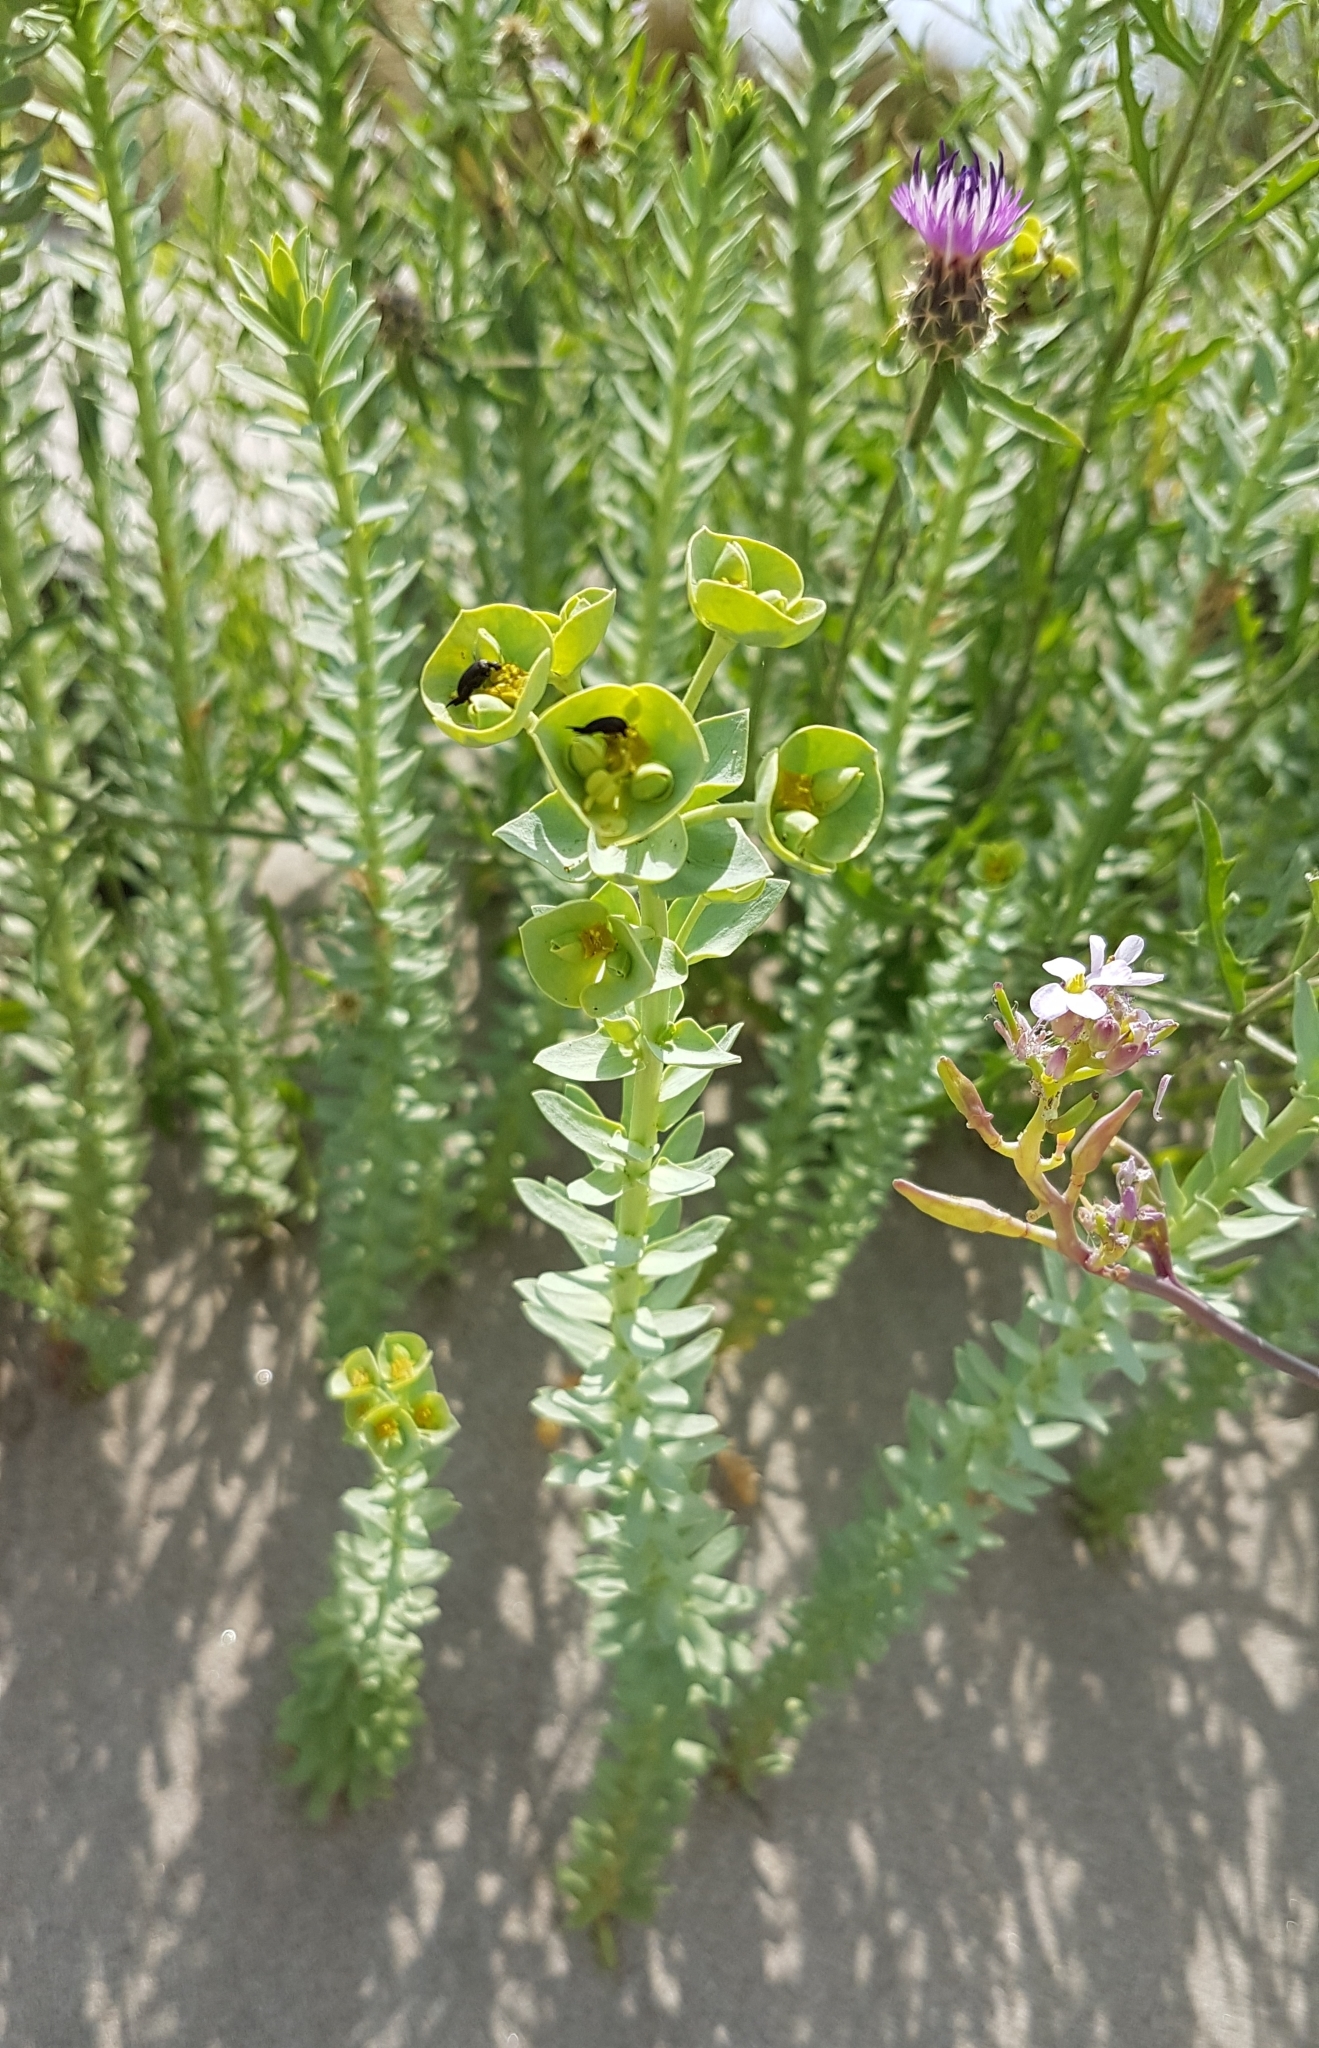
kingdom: Plantae
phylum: Tracheophyta
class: Magnoliopsida
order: Malpighiales
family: Euphorbiaceae
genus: Euphorbia
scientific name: Euphorbia paralias
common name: Sea spurge
